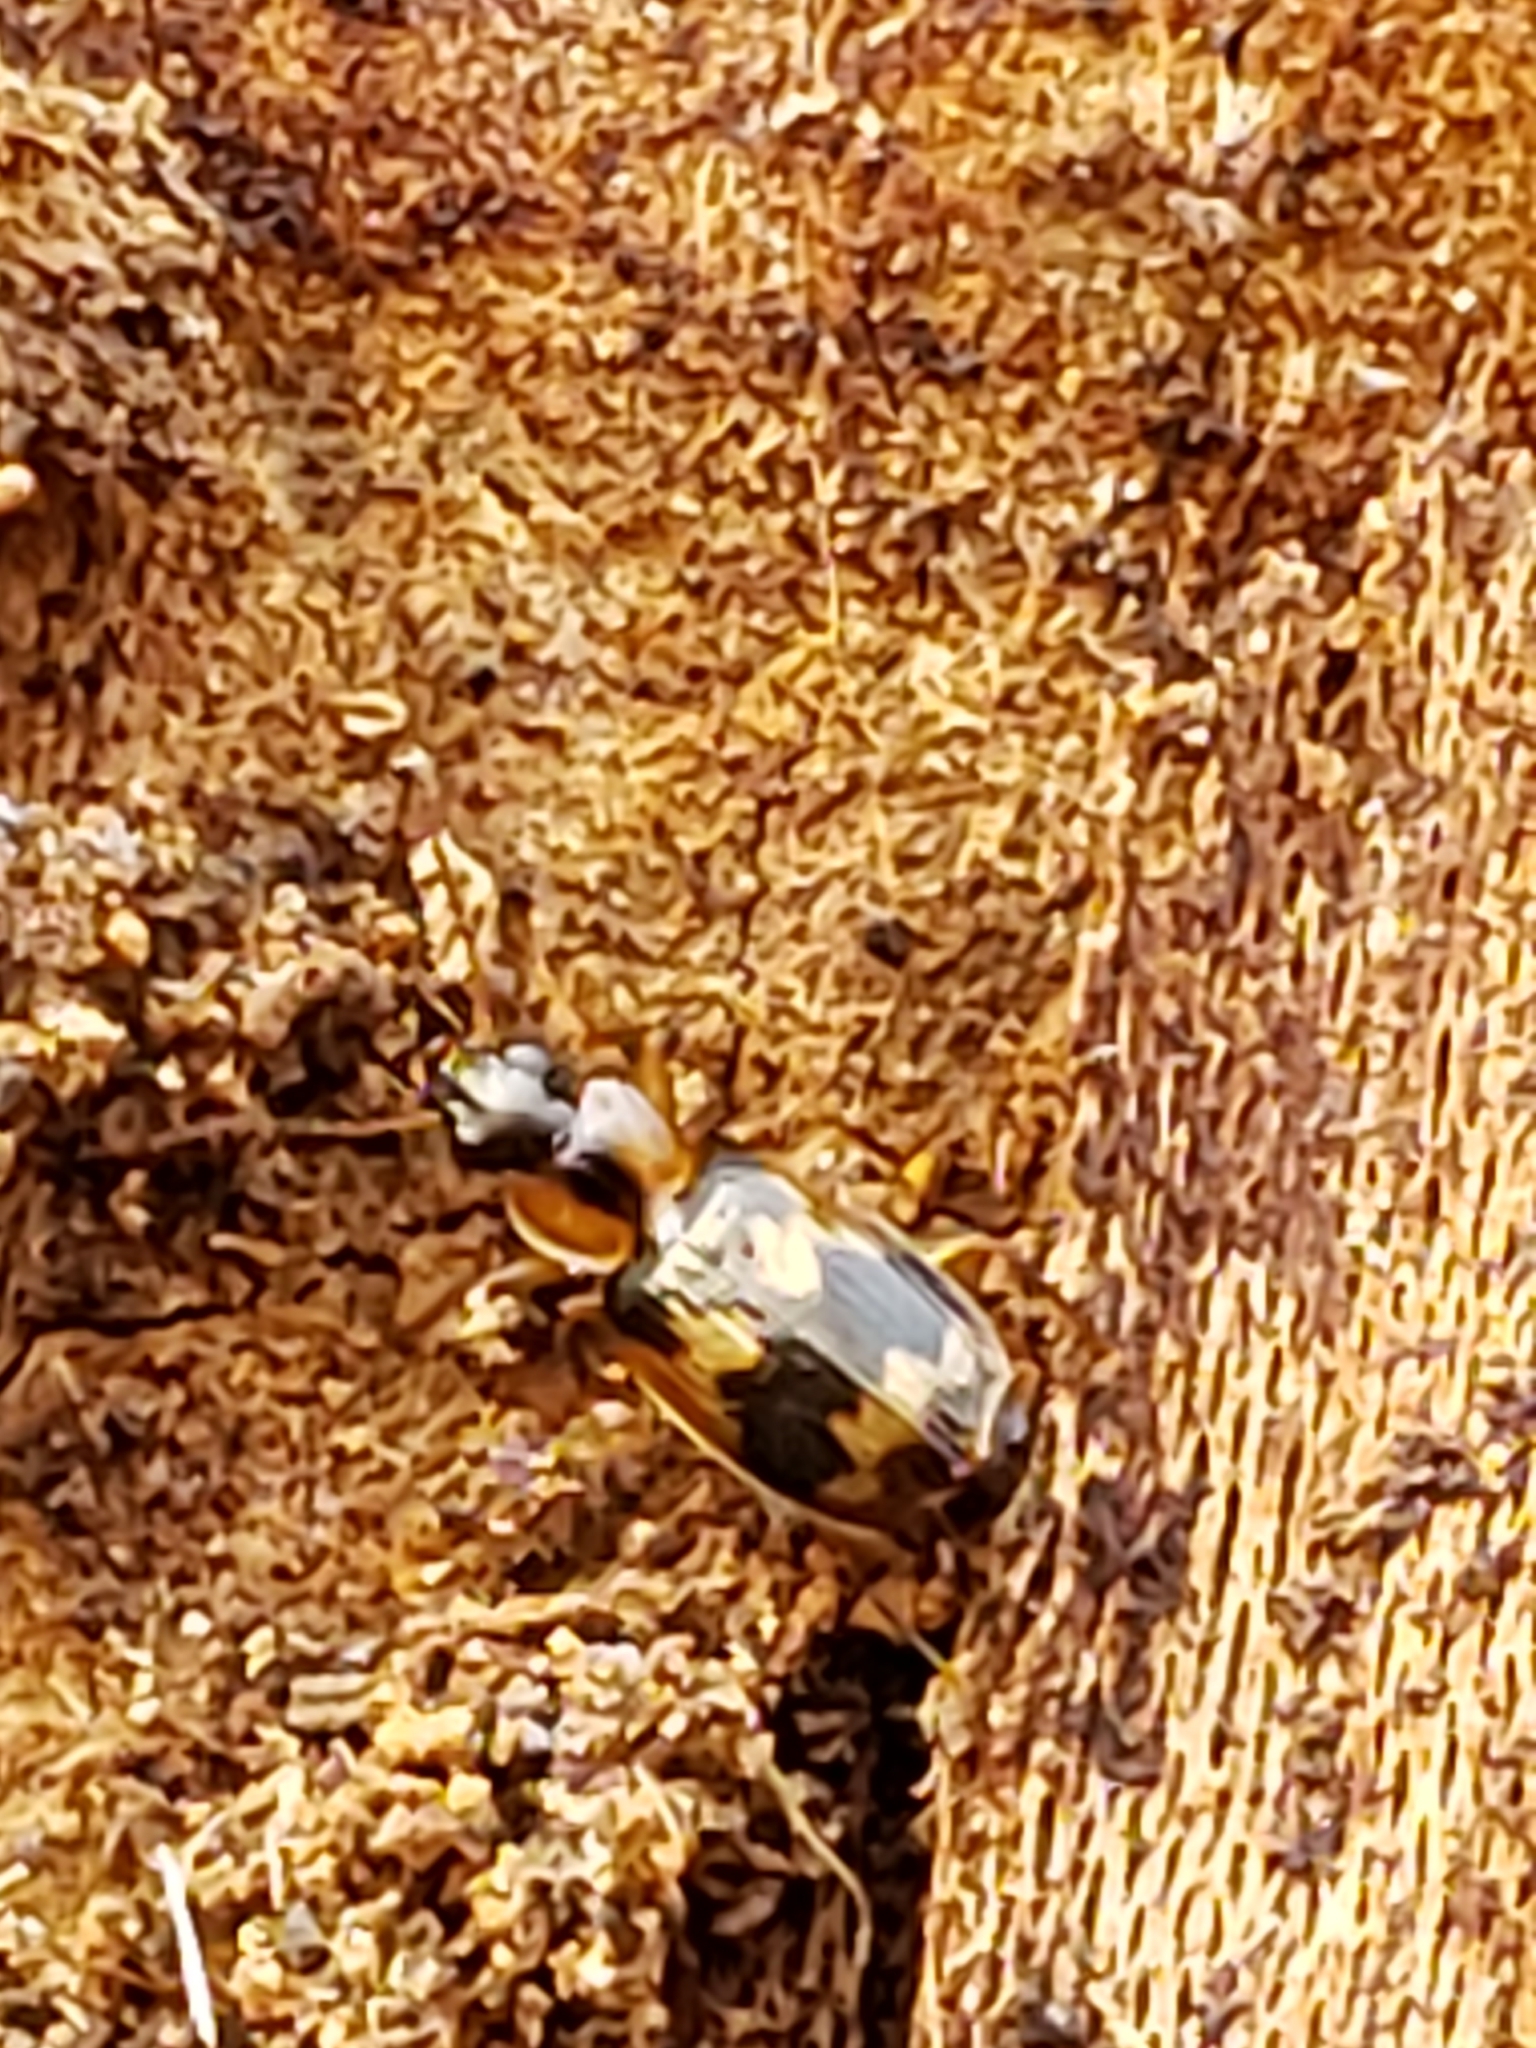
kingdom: Animalia
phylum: Arthropoda
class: Insecta
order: Coleoptera
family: Carabidae
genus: Phloeoxena
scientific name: Phloeoxena signata
